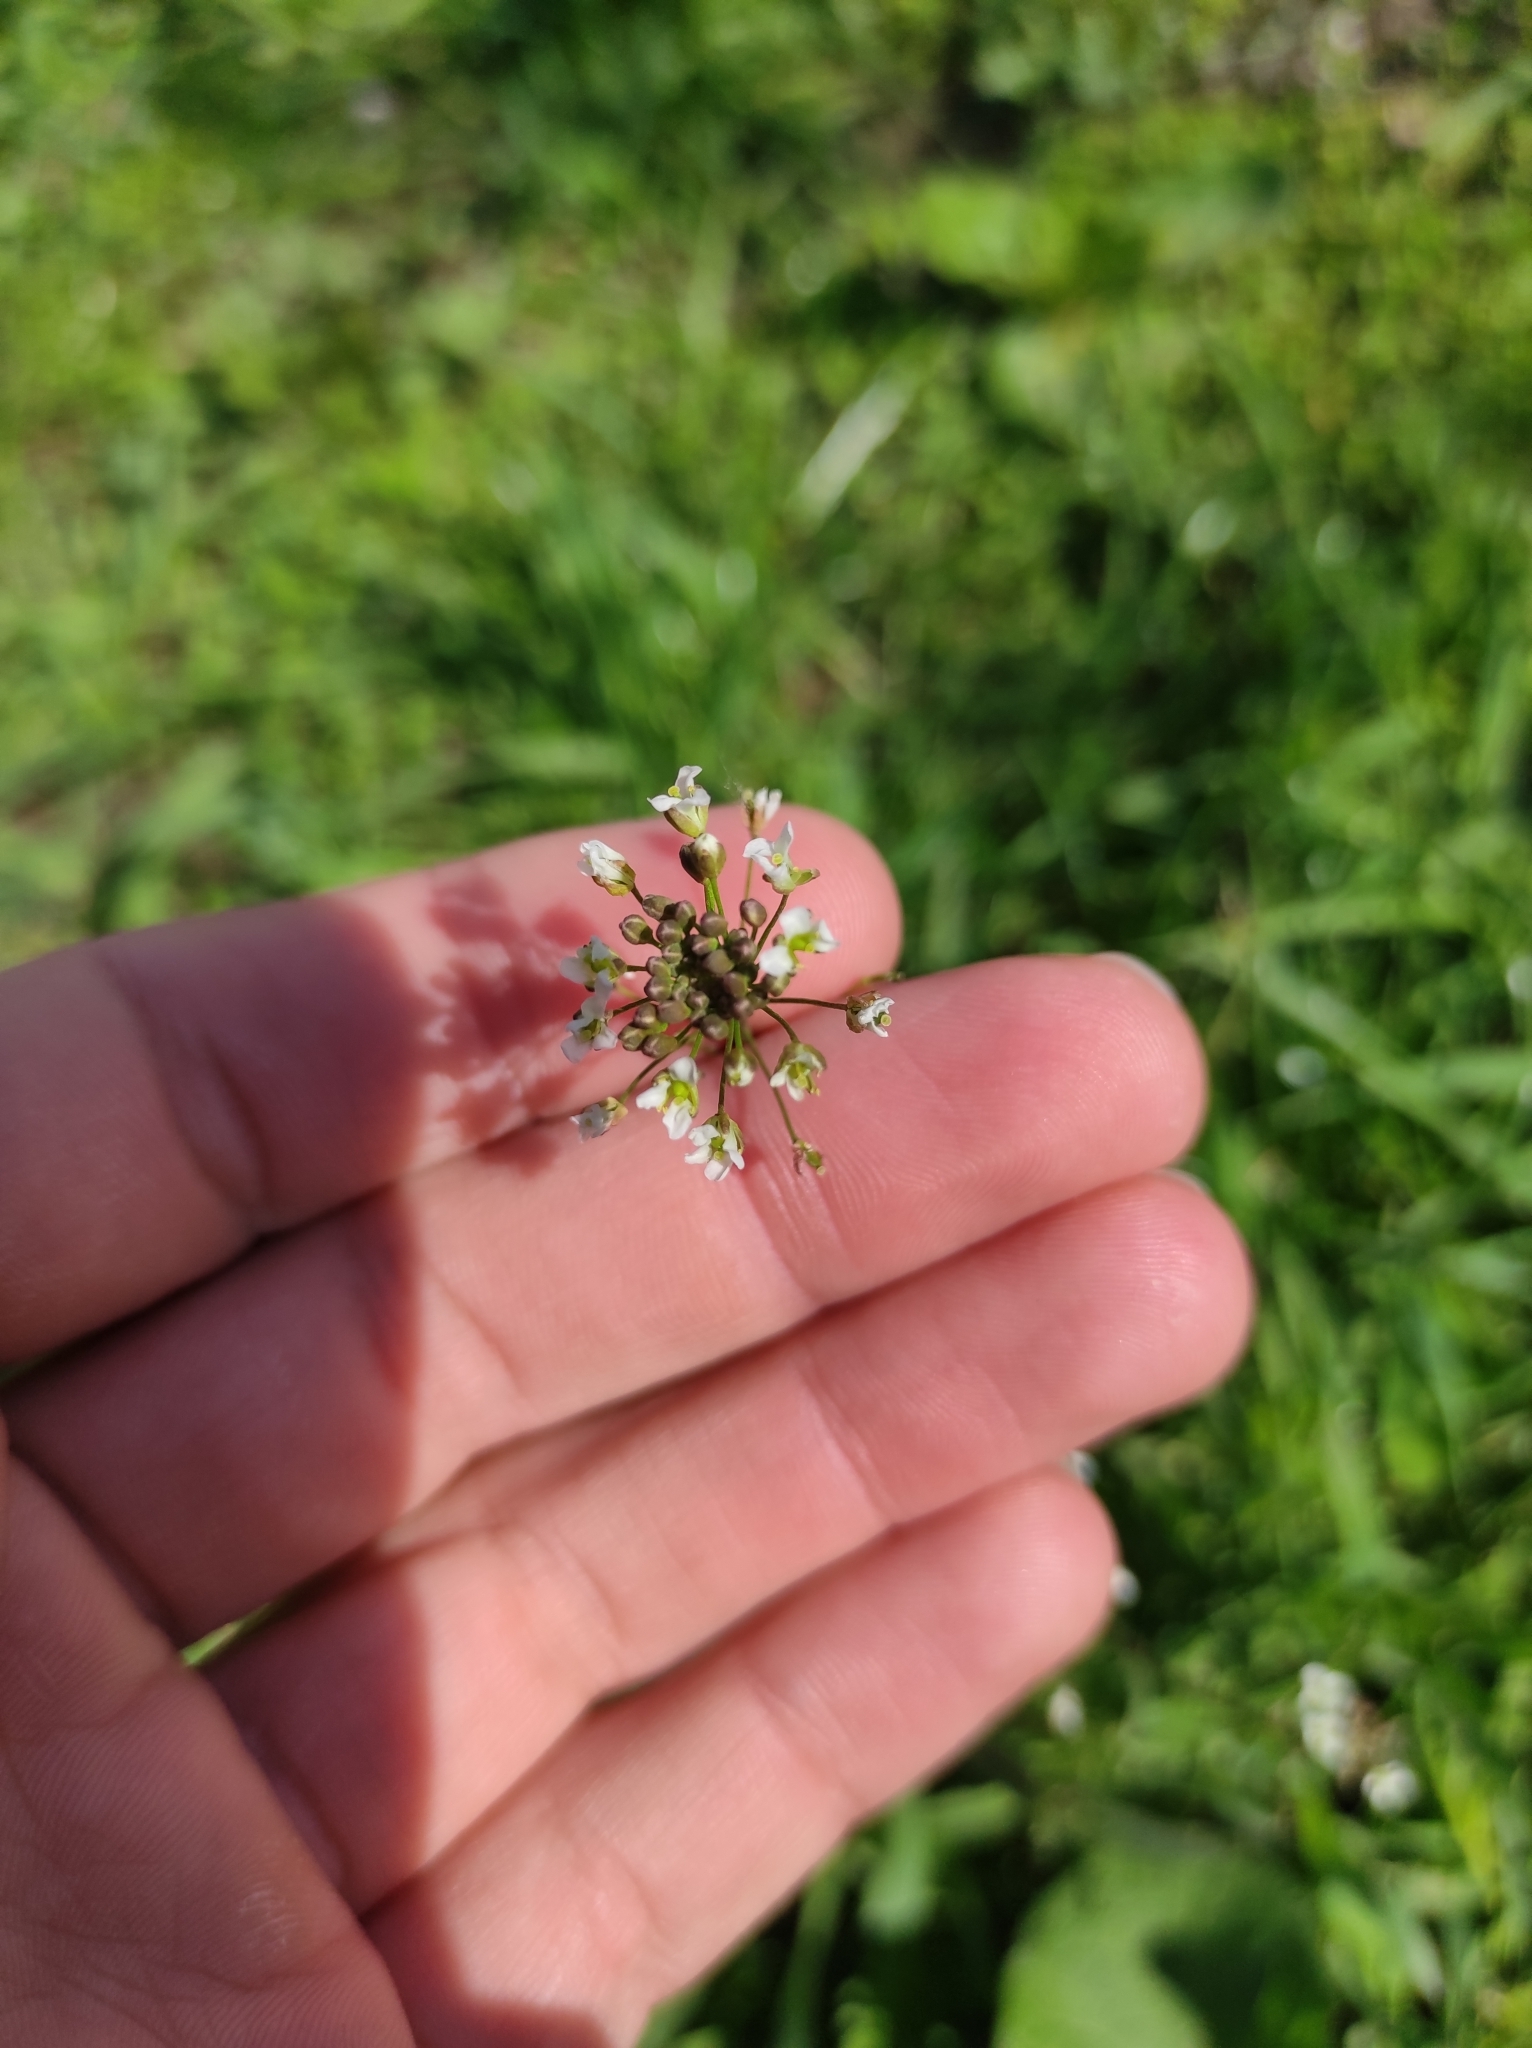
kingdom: Plantae
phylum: Tracheophyta
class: Magnoliopsida
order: Brassicales
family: Brassicaceae
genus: Capsella
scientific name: Capsella bursa-pastoris
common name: Shepherd's purse
